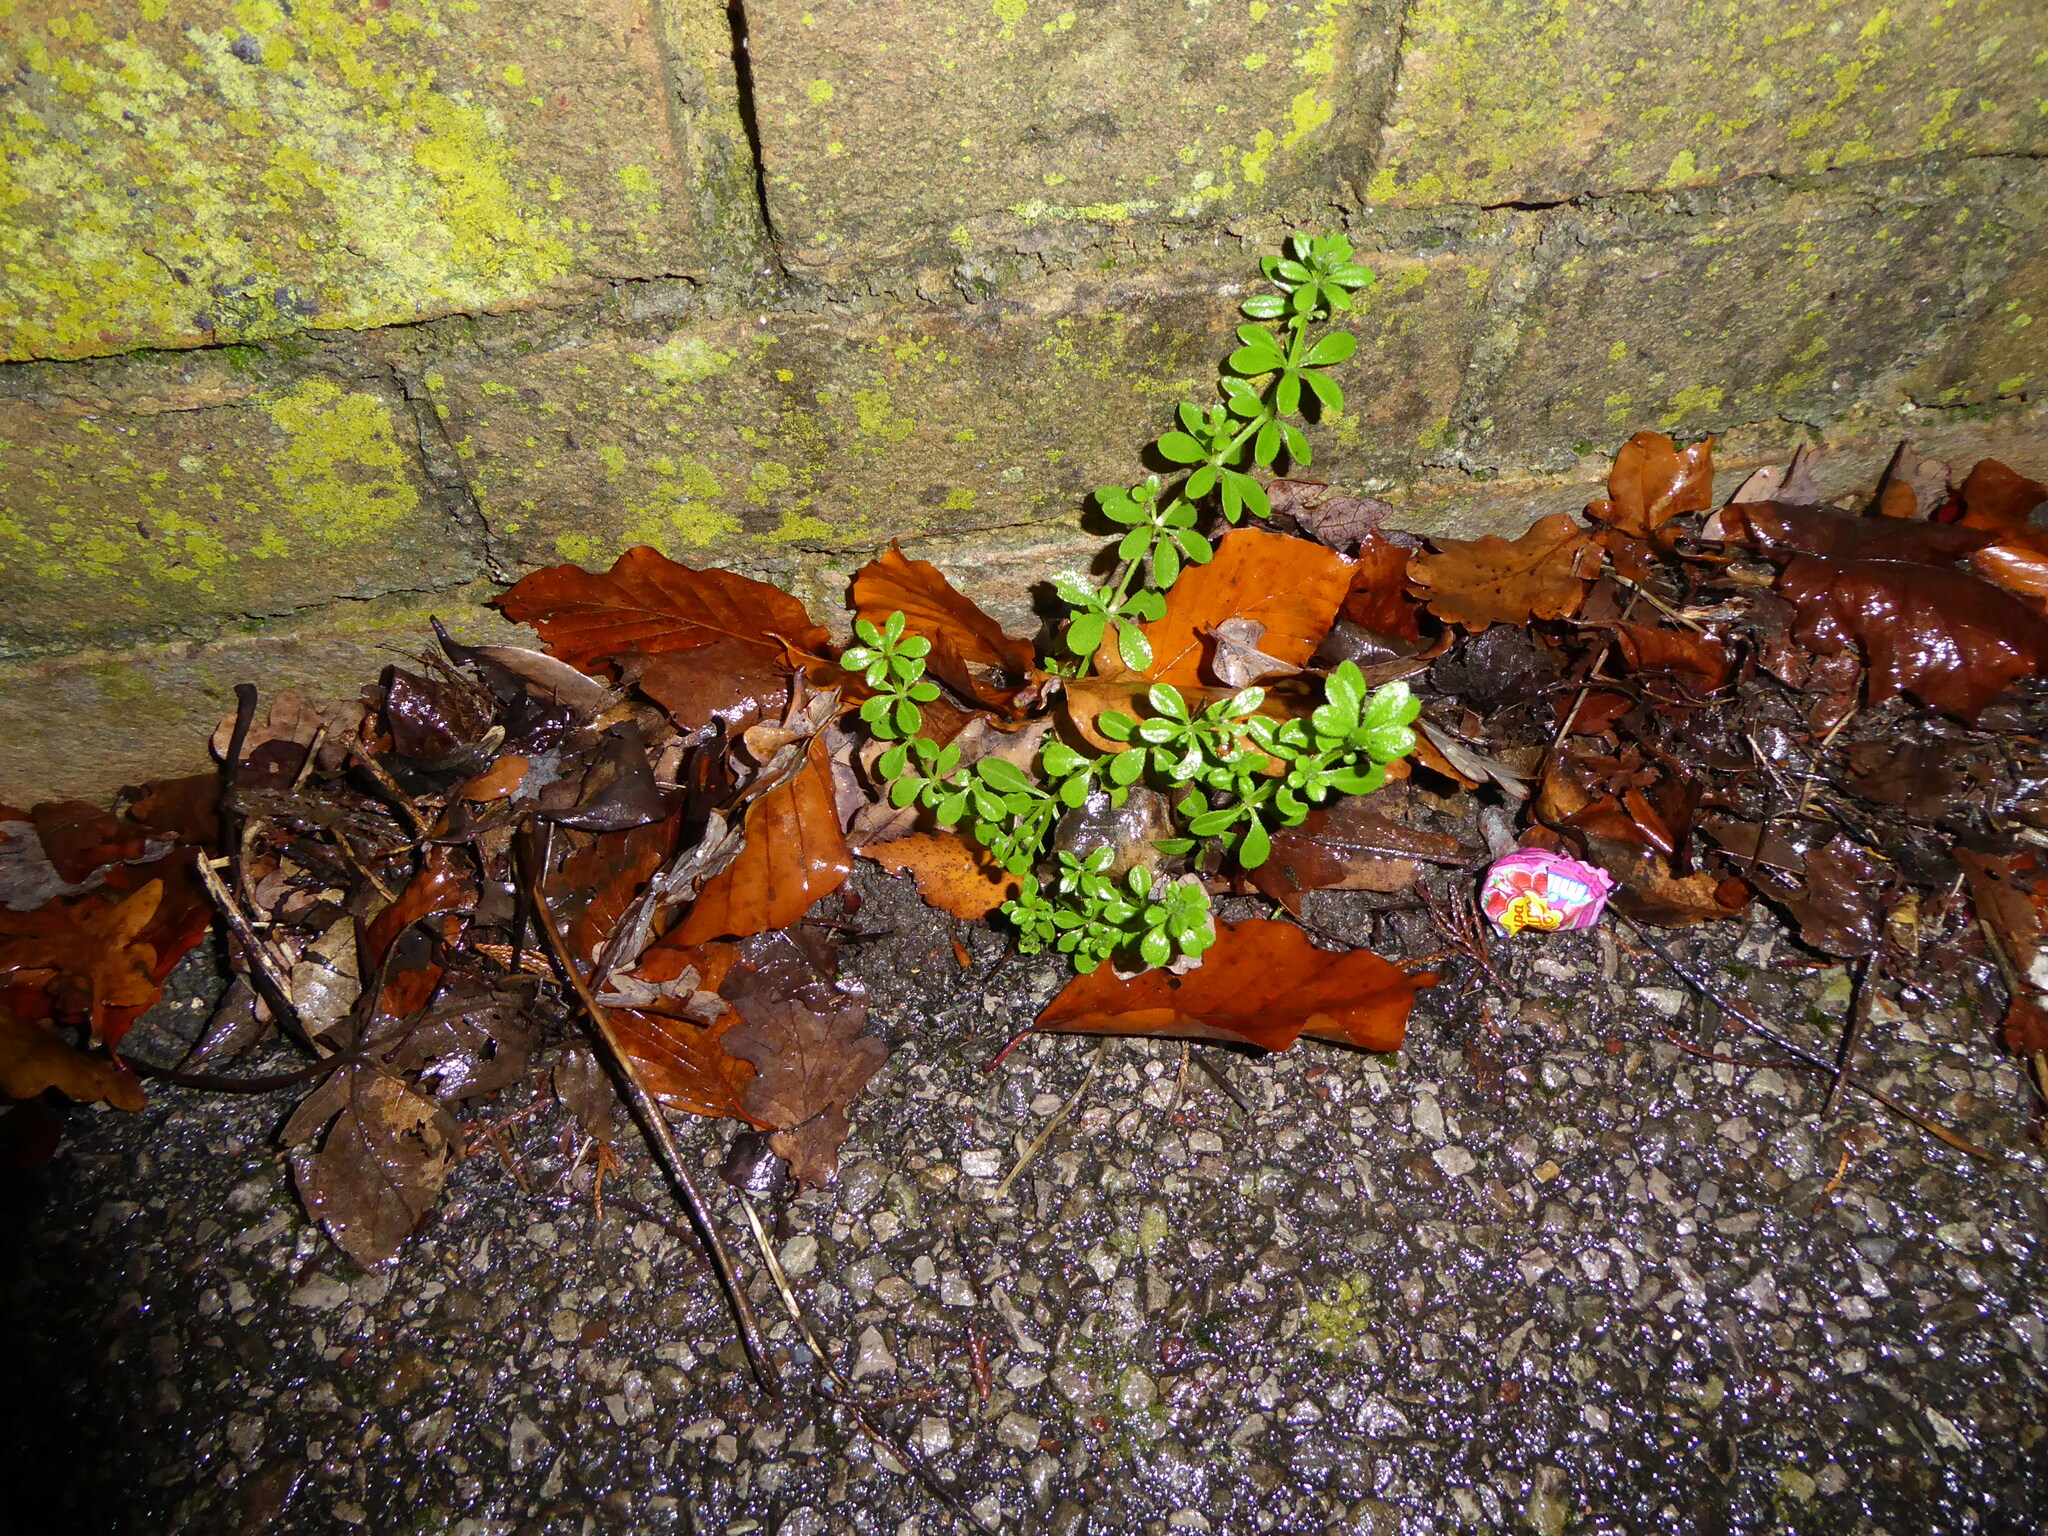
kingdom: Plantae
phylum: Tracheophyta
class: Magnoliopsida
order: Gentianales
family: Rubiaceae
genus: Galium
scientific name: Galium aparine
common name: Cleavers
